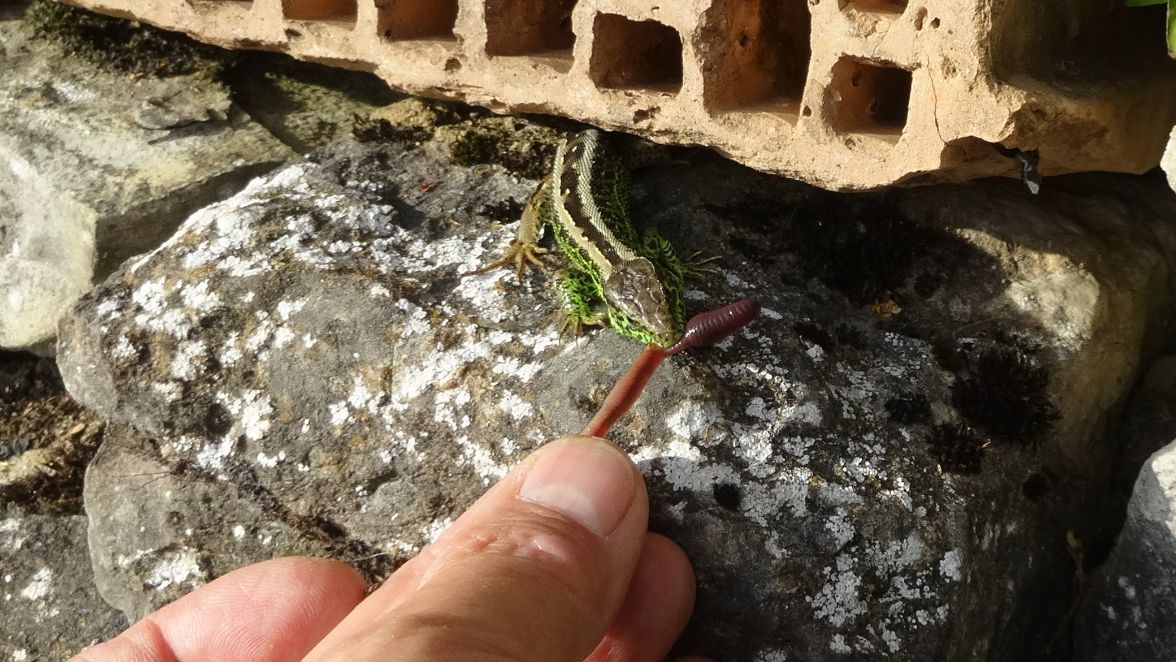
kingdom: Animalia
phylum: Chordata
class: Squamata
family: Lacertidae
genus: Lacerta
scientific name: Lacerta agilis
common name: Sand lizard
